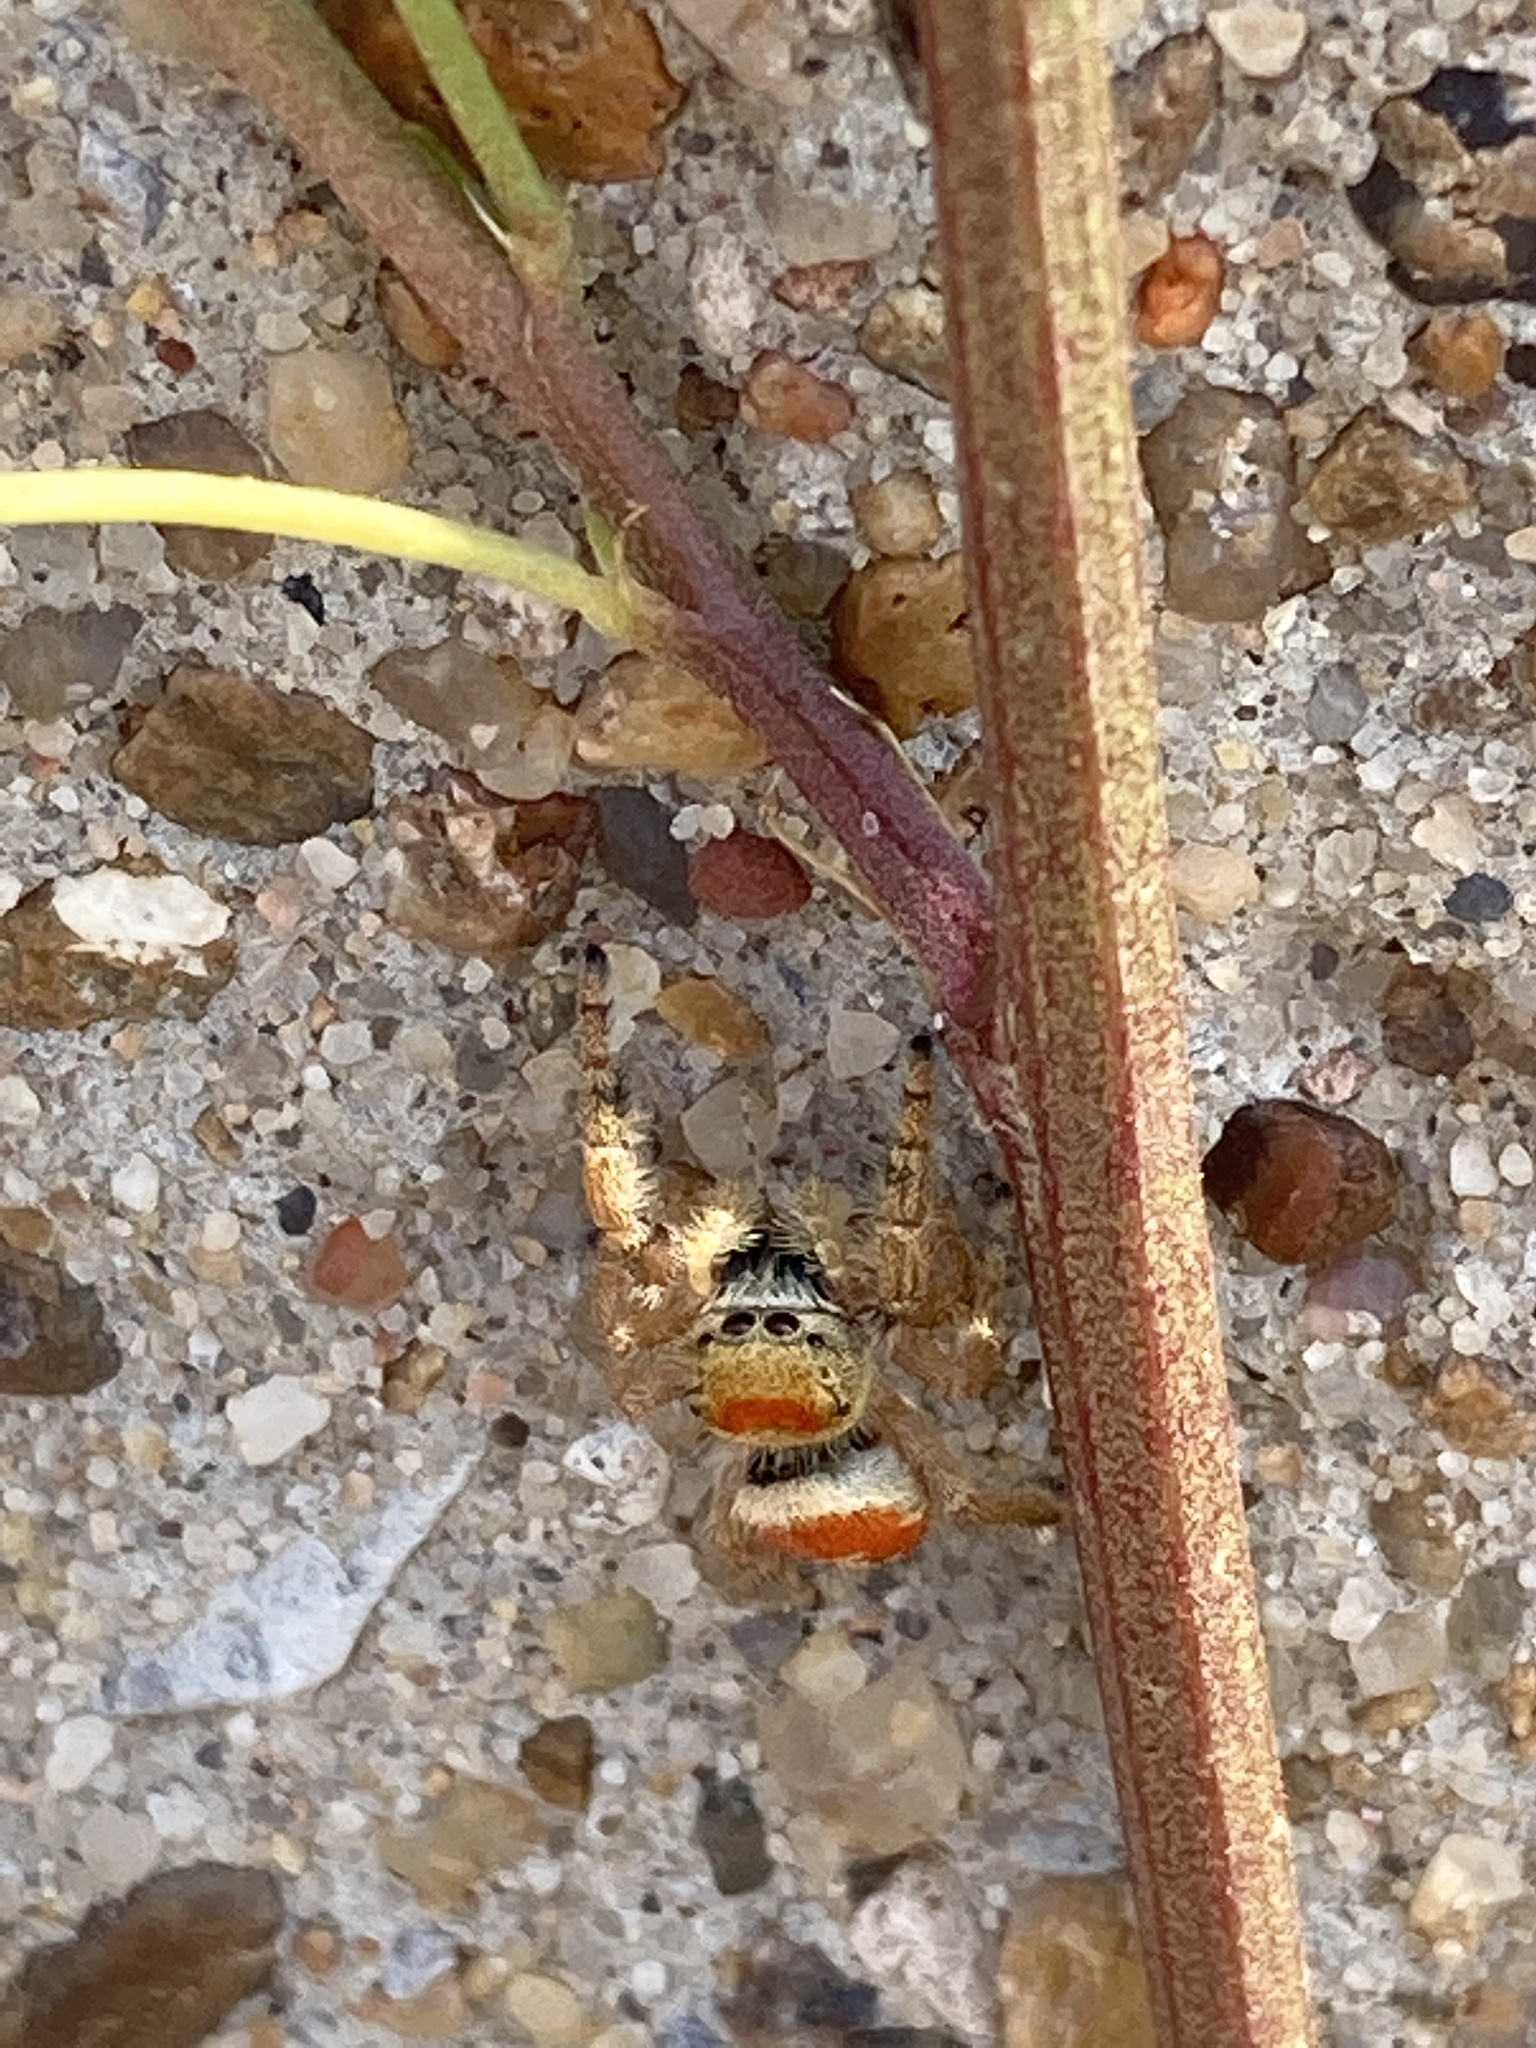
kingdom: Animalia
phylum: Arthropoda
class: Arachnida
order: Araneae
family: Salticidae
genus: Phidippus
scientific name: Phidippus apacheanus
